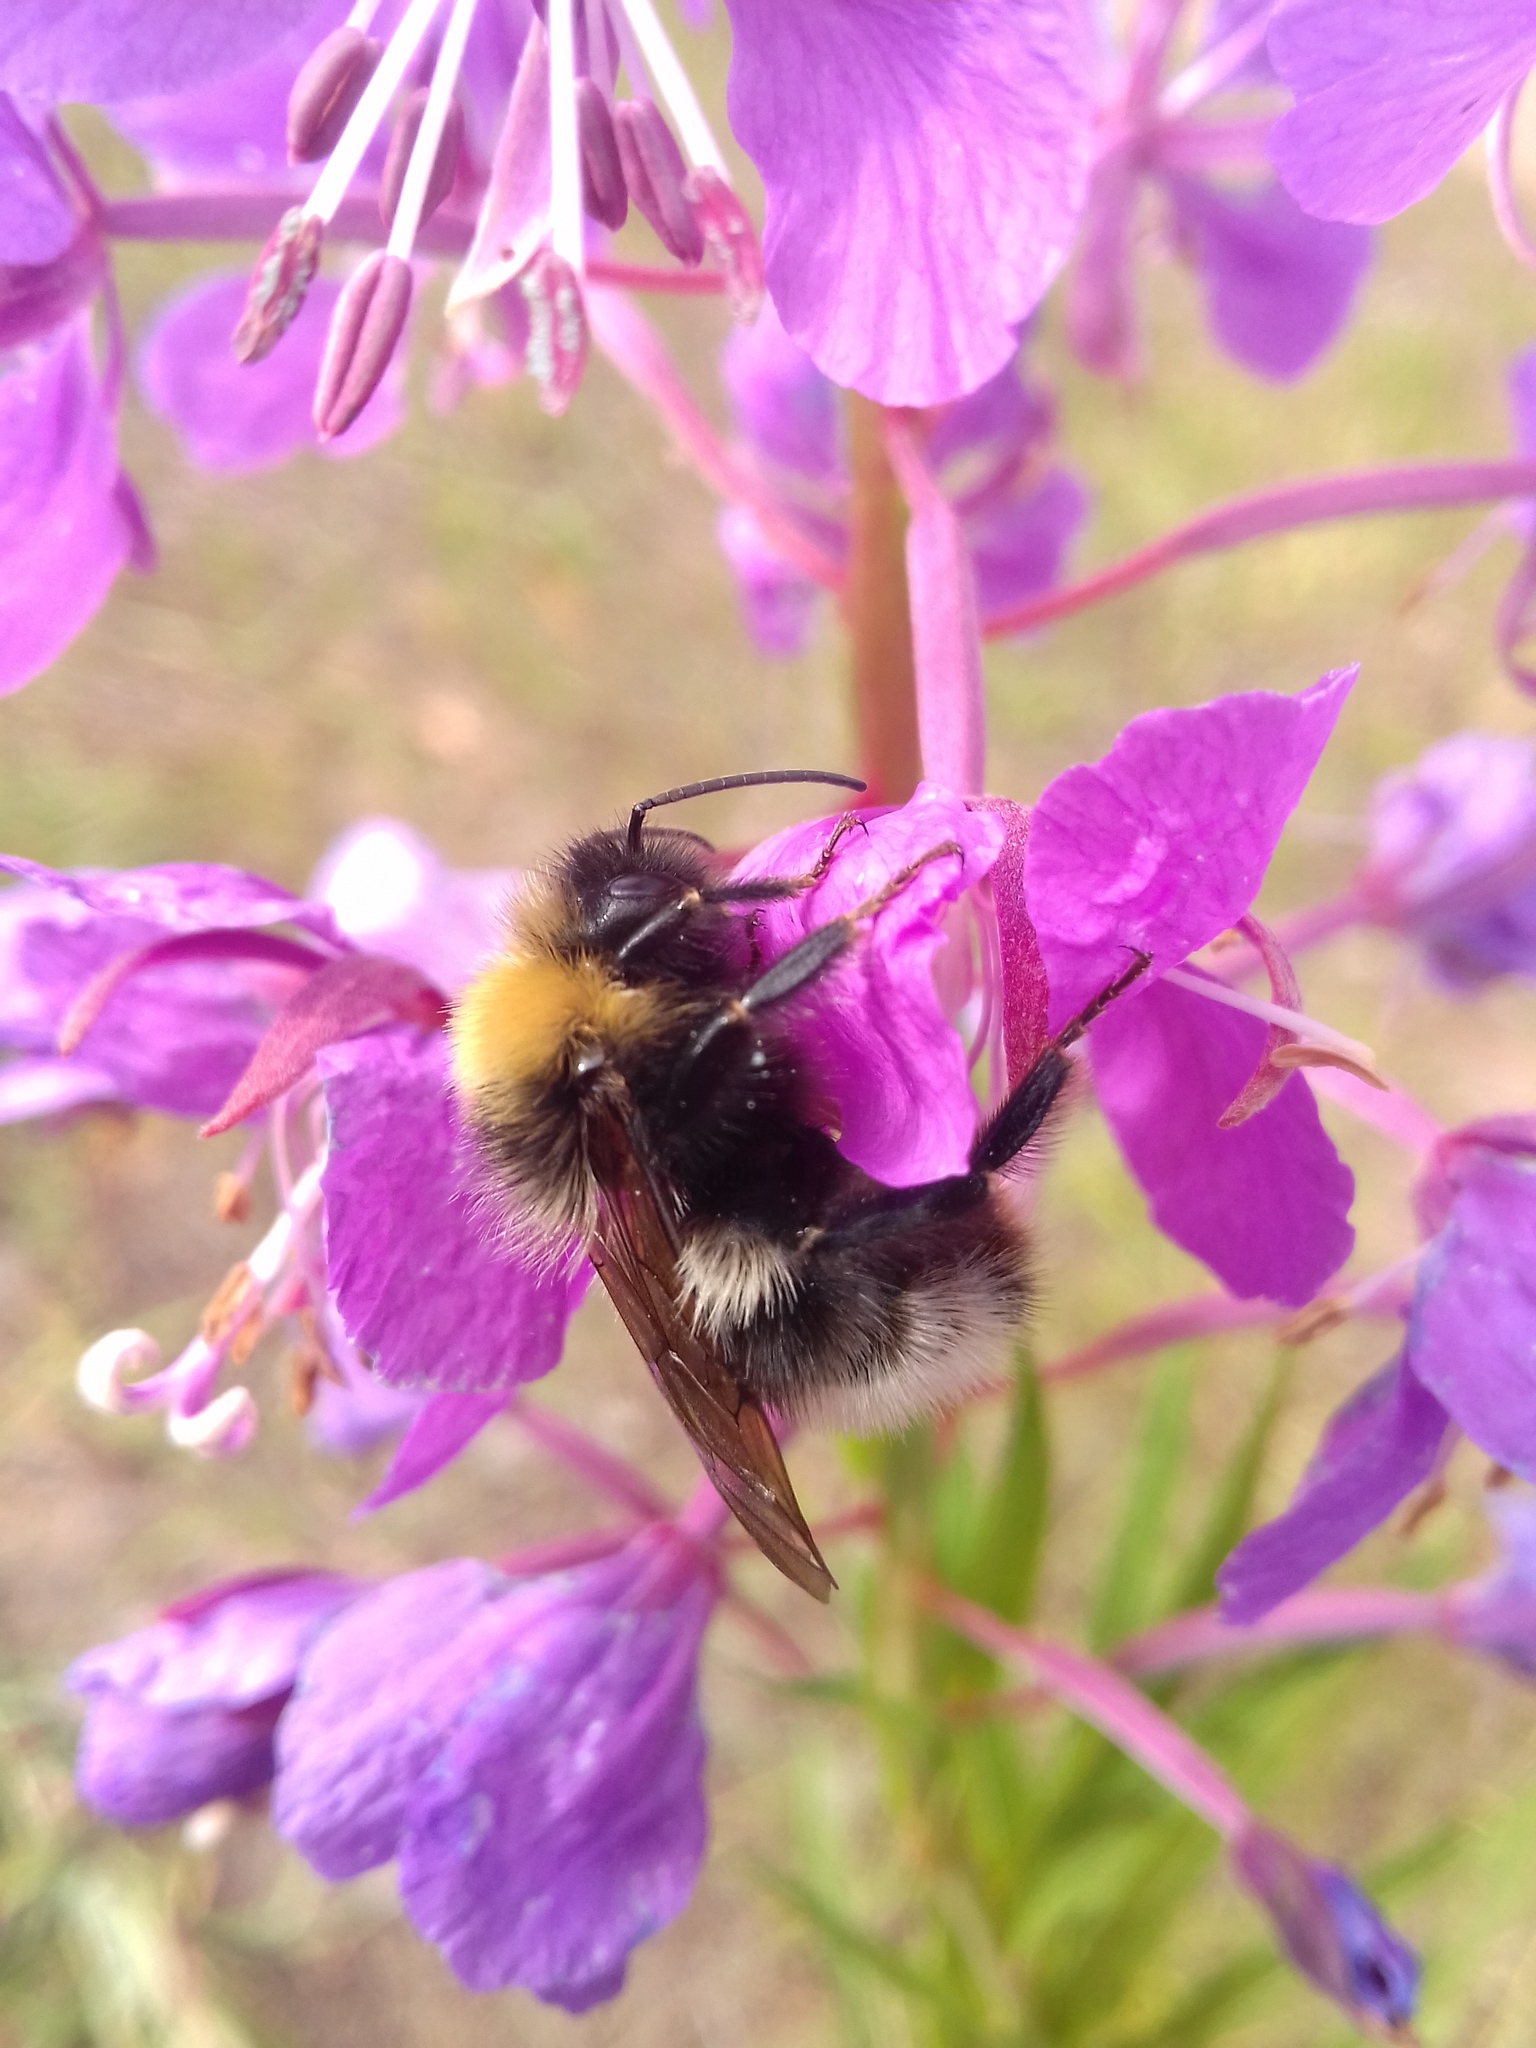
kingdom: Animalia
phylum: Arthropoda
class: Insecta
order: Hymenoptera
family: Apidae
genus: Bombus
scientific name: Bombus
